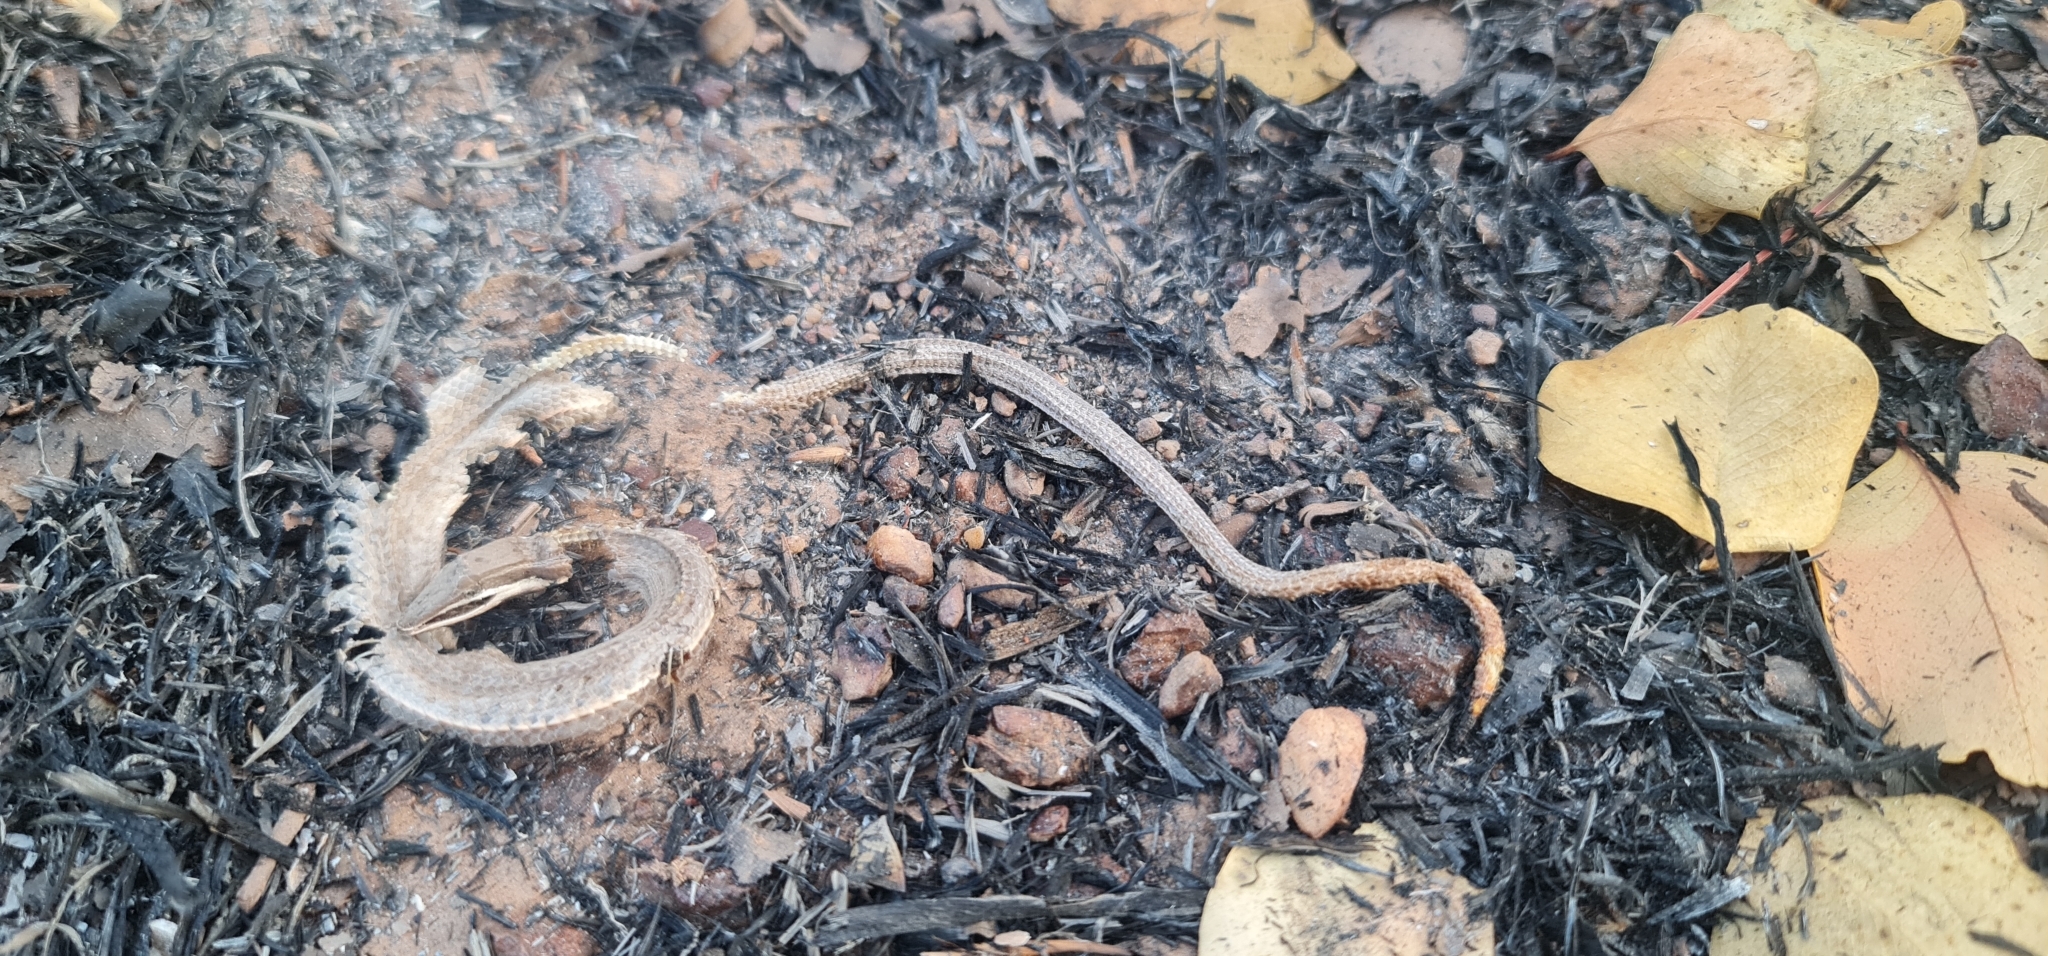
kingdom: Animalia
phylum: Chordata
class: Squamata
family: Pygopodidae
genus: Lialis
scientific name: Lialis burtonis
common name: Burton's legless lizard
